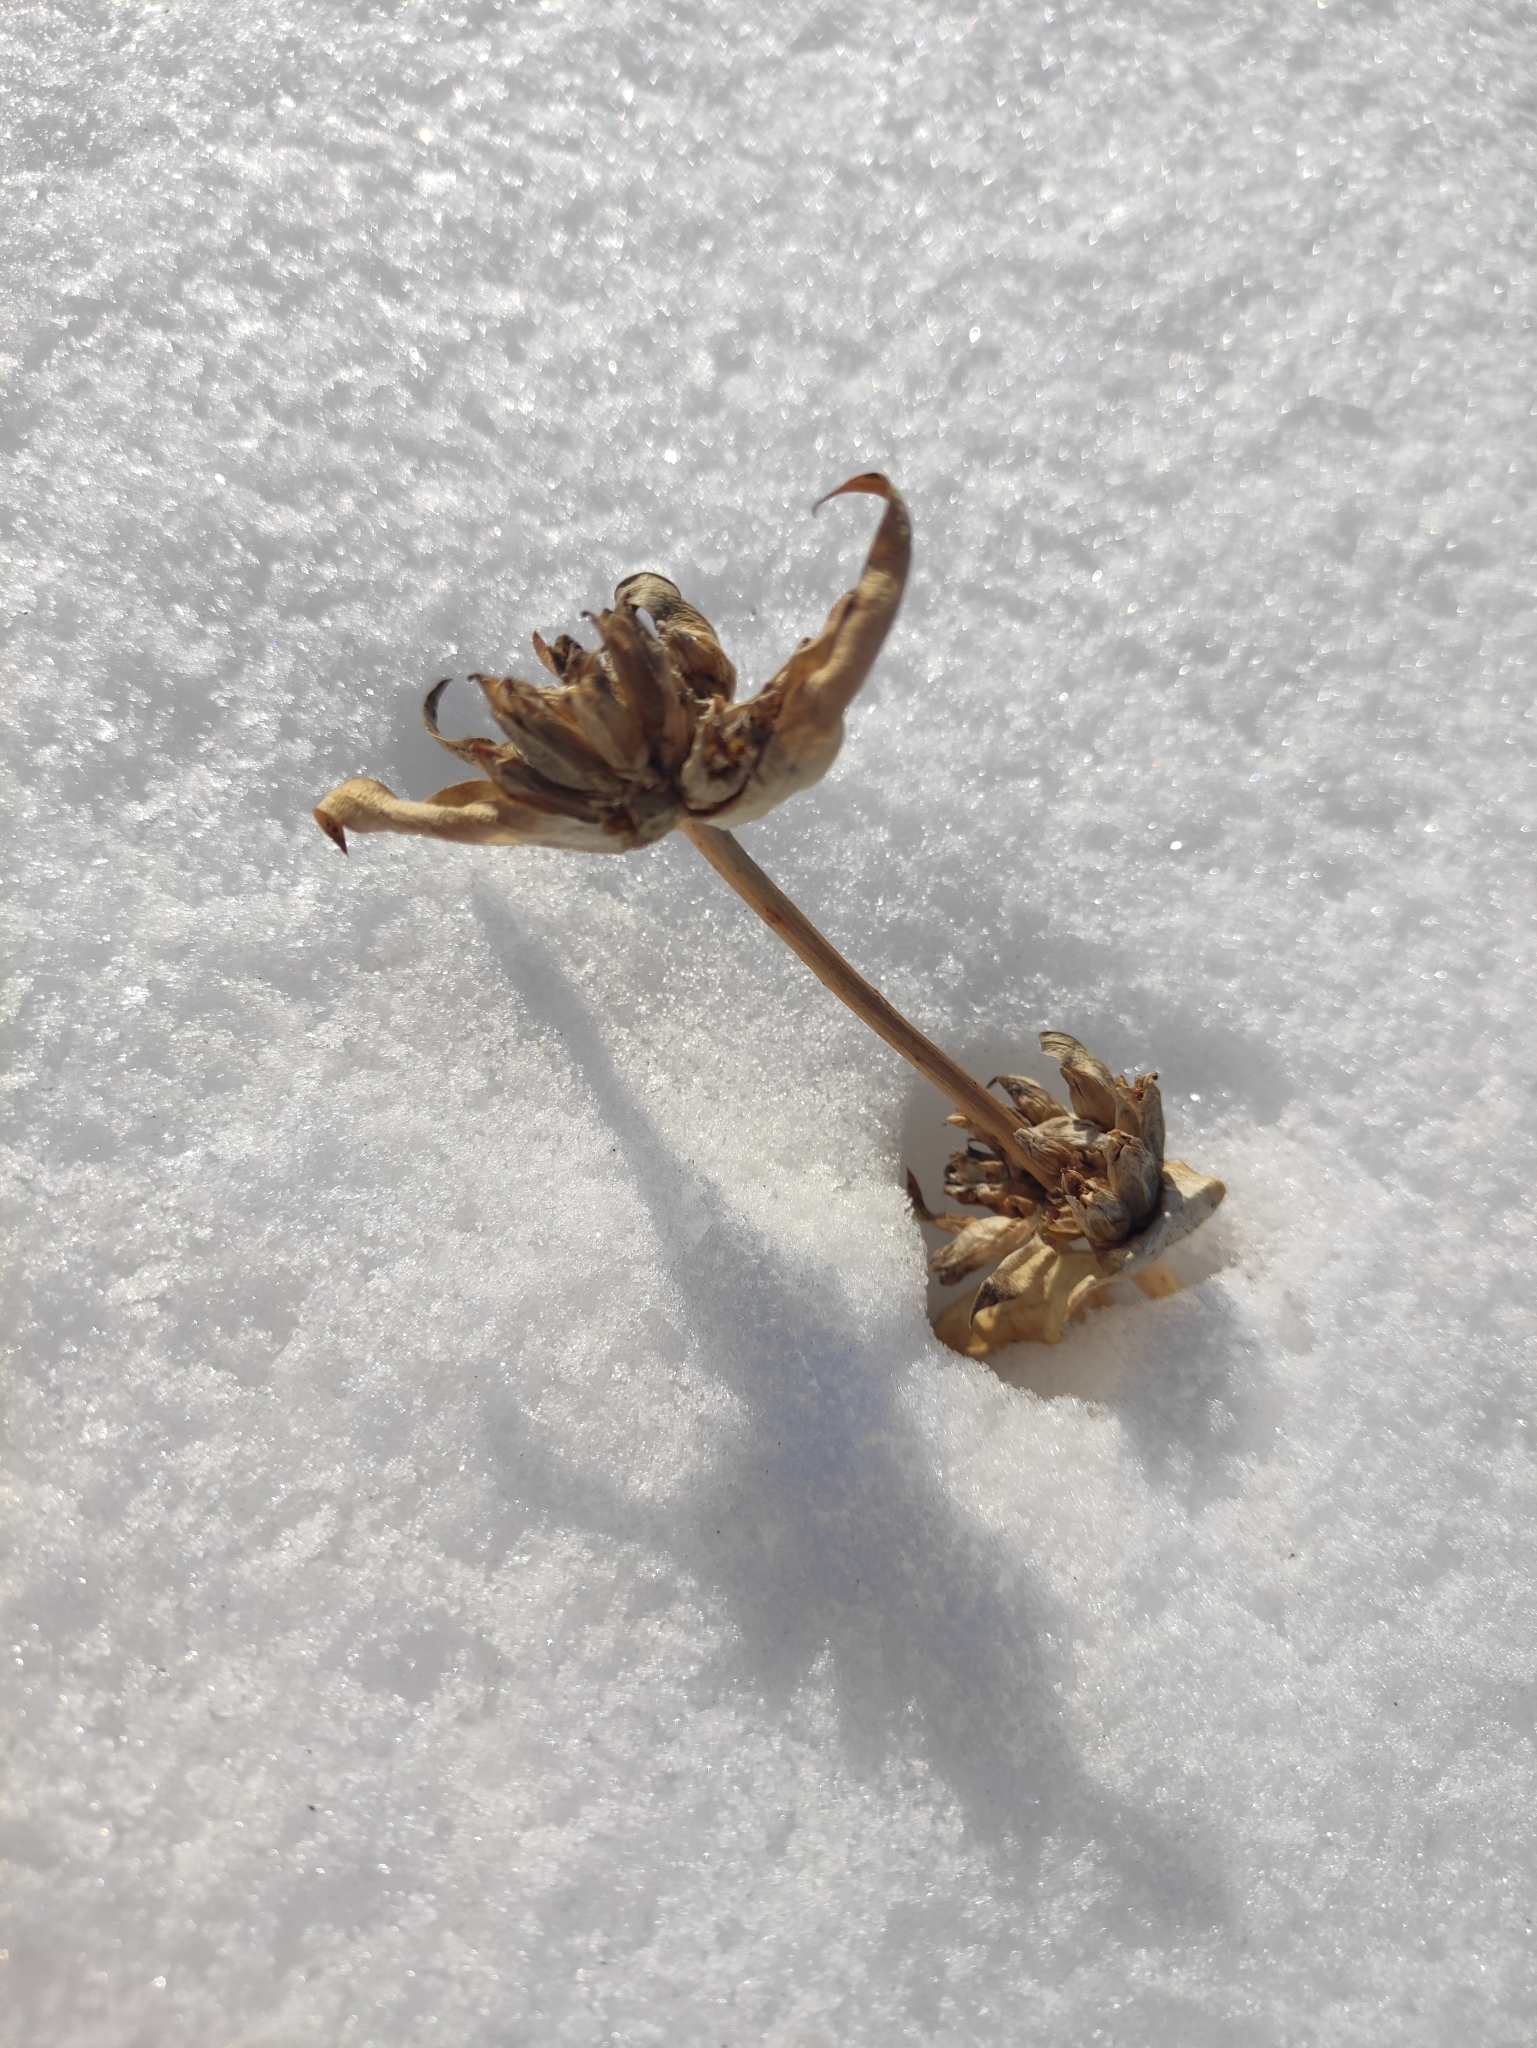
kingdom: Plantae
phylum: Tracheophyta
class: Magnoliopsida
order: Gentianales
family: Gentianaceae
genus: Gentiana
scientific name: Gentiana macrophylla
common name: Large-leaf gentian
